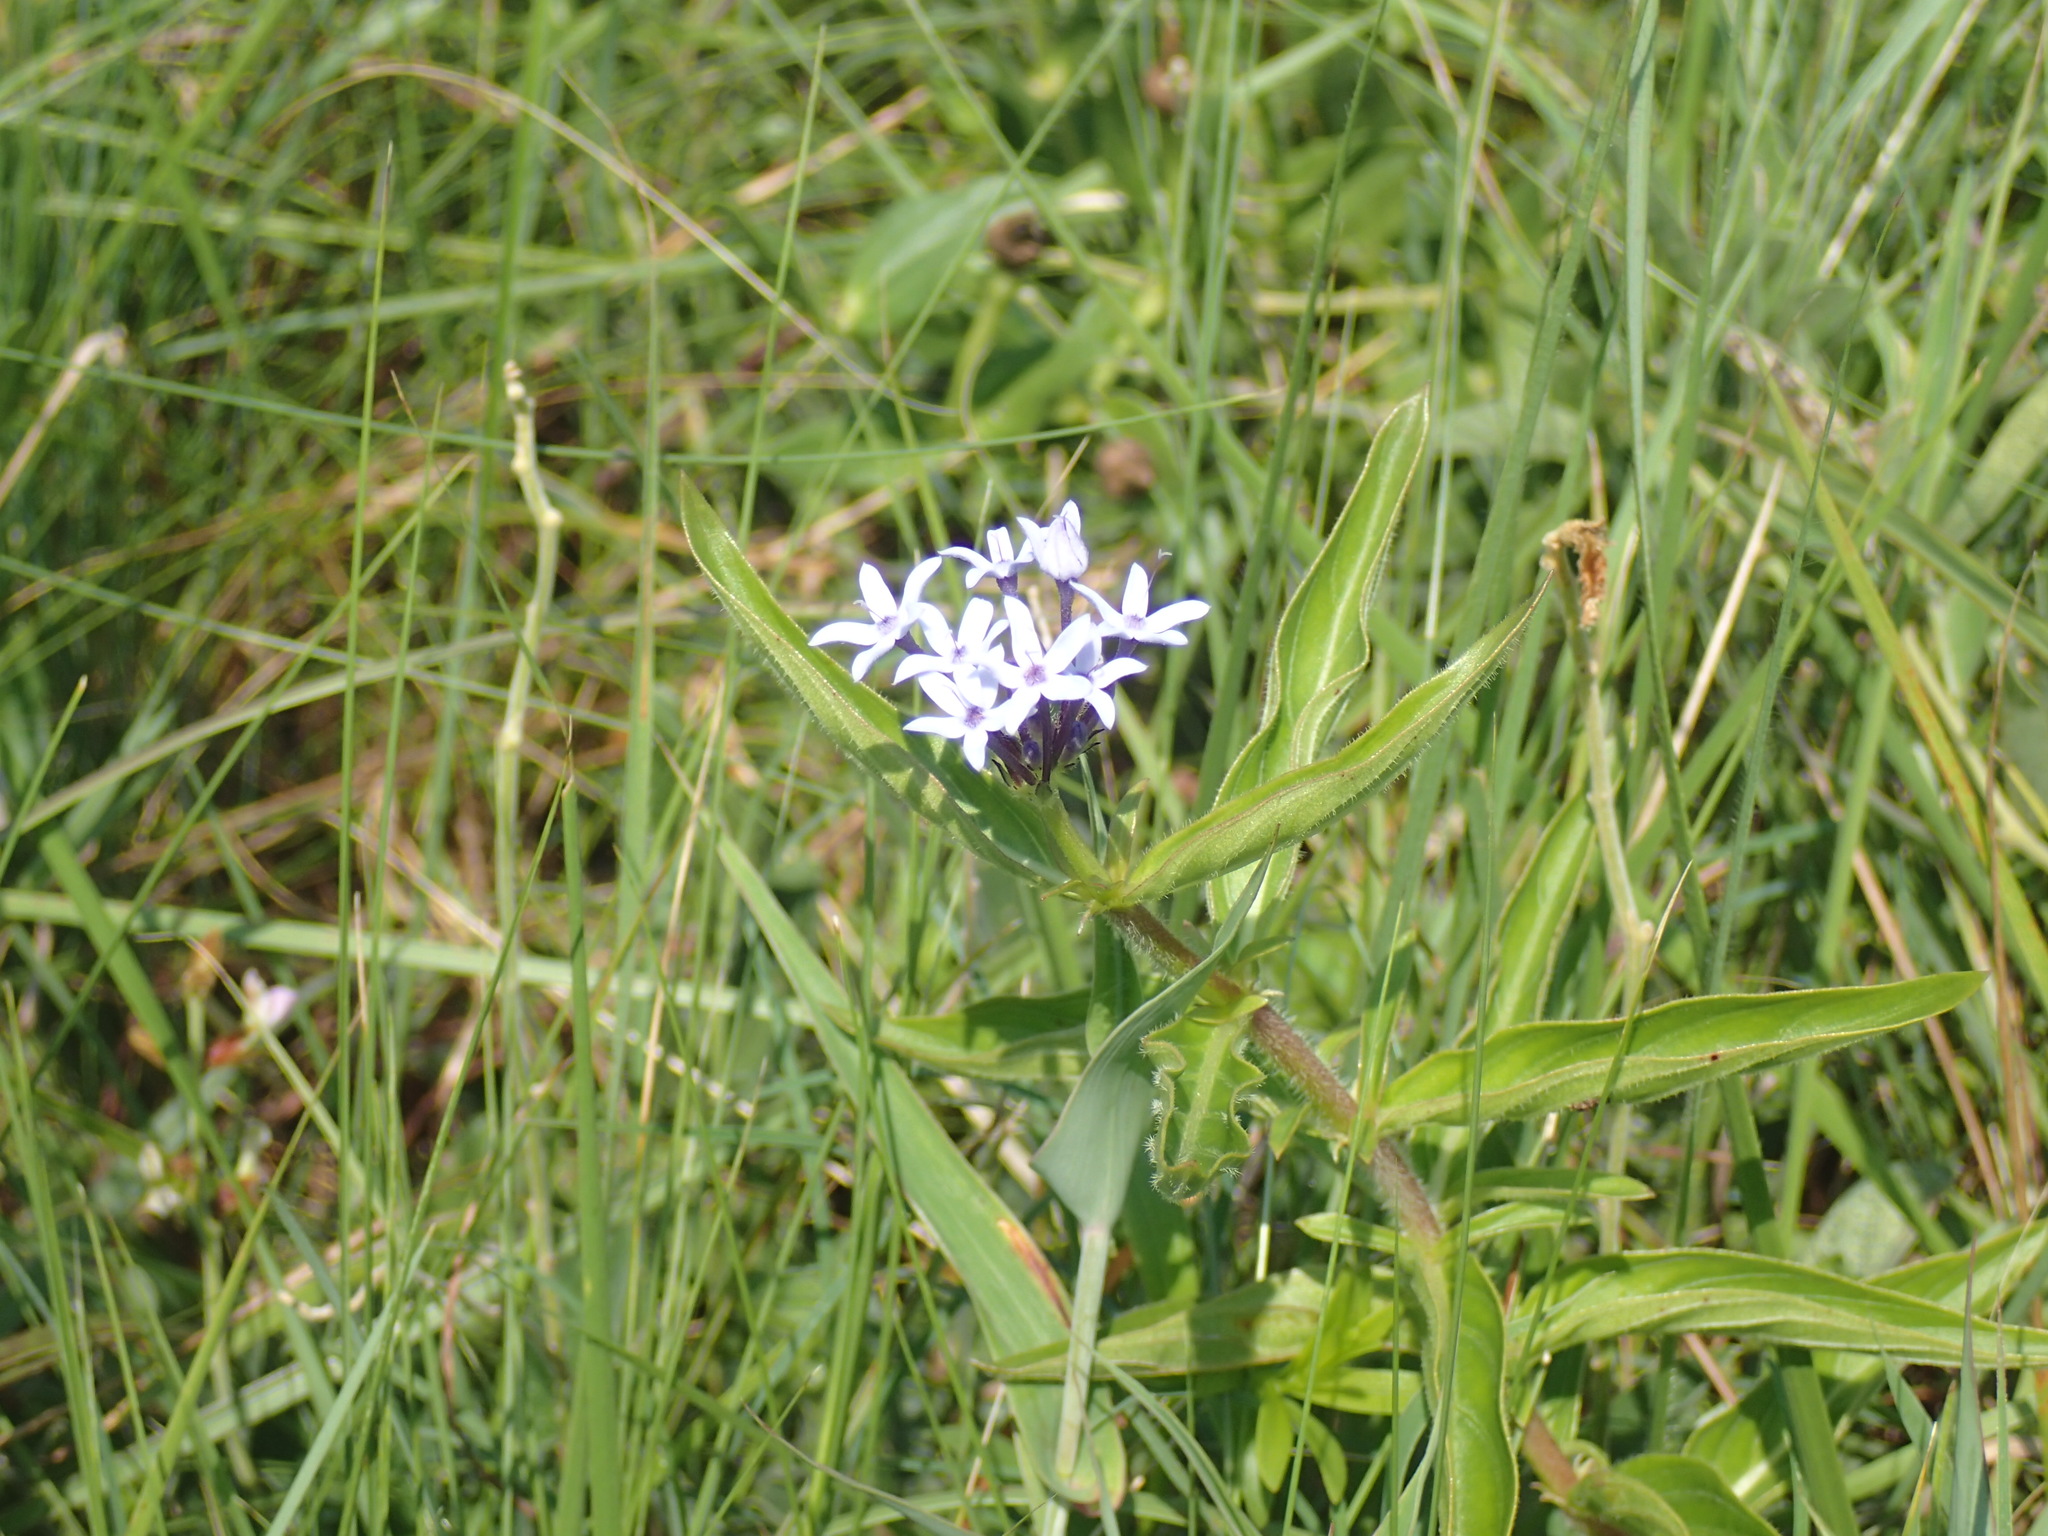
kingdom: Plantae
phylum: Tracheophyta
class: Magnoliopsida
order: Gentianales
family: Rubiaceae
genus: Pentanisia
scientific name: Pentanisia angustifolia
